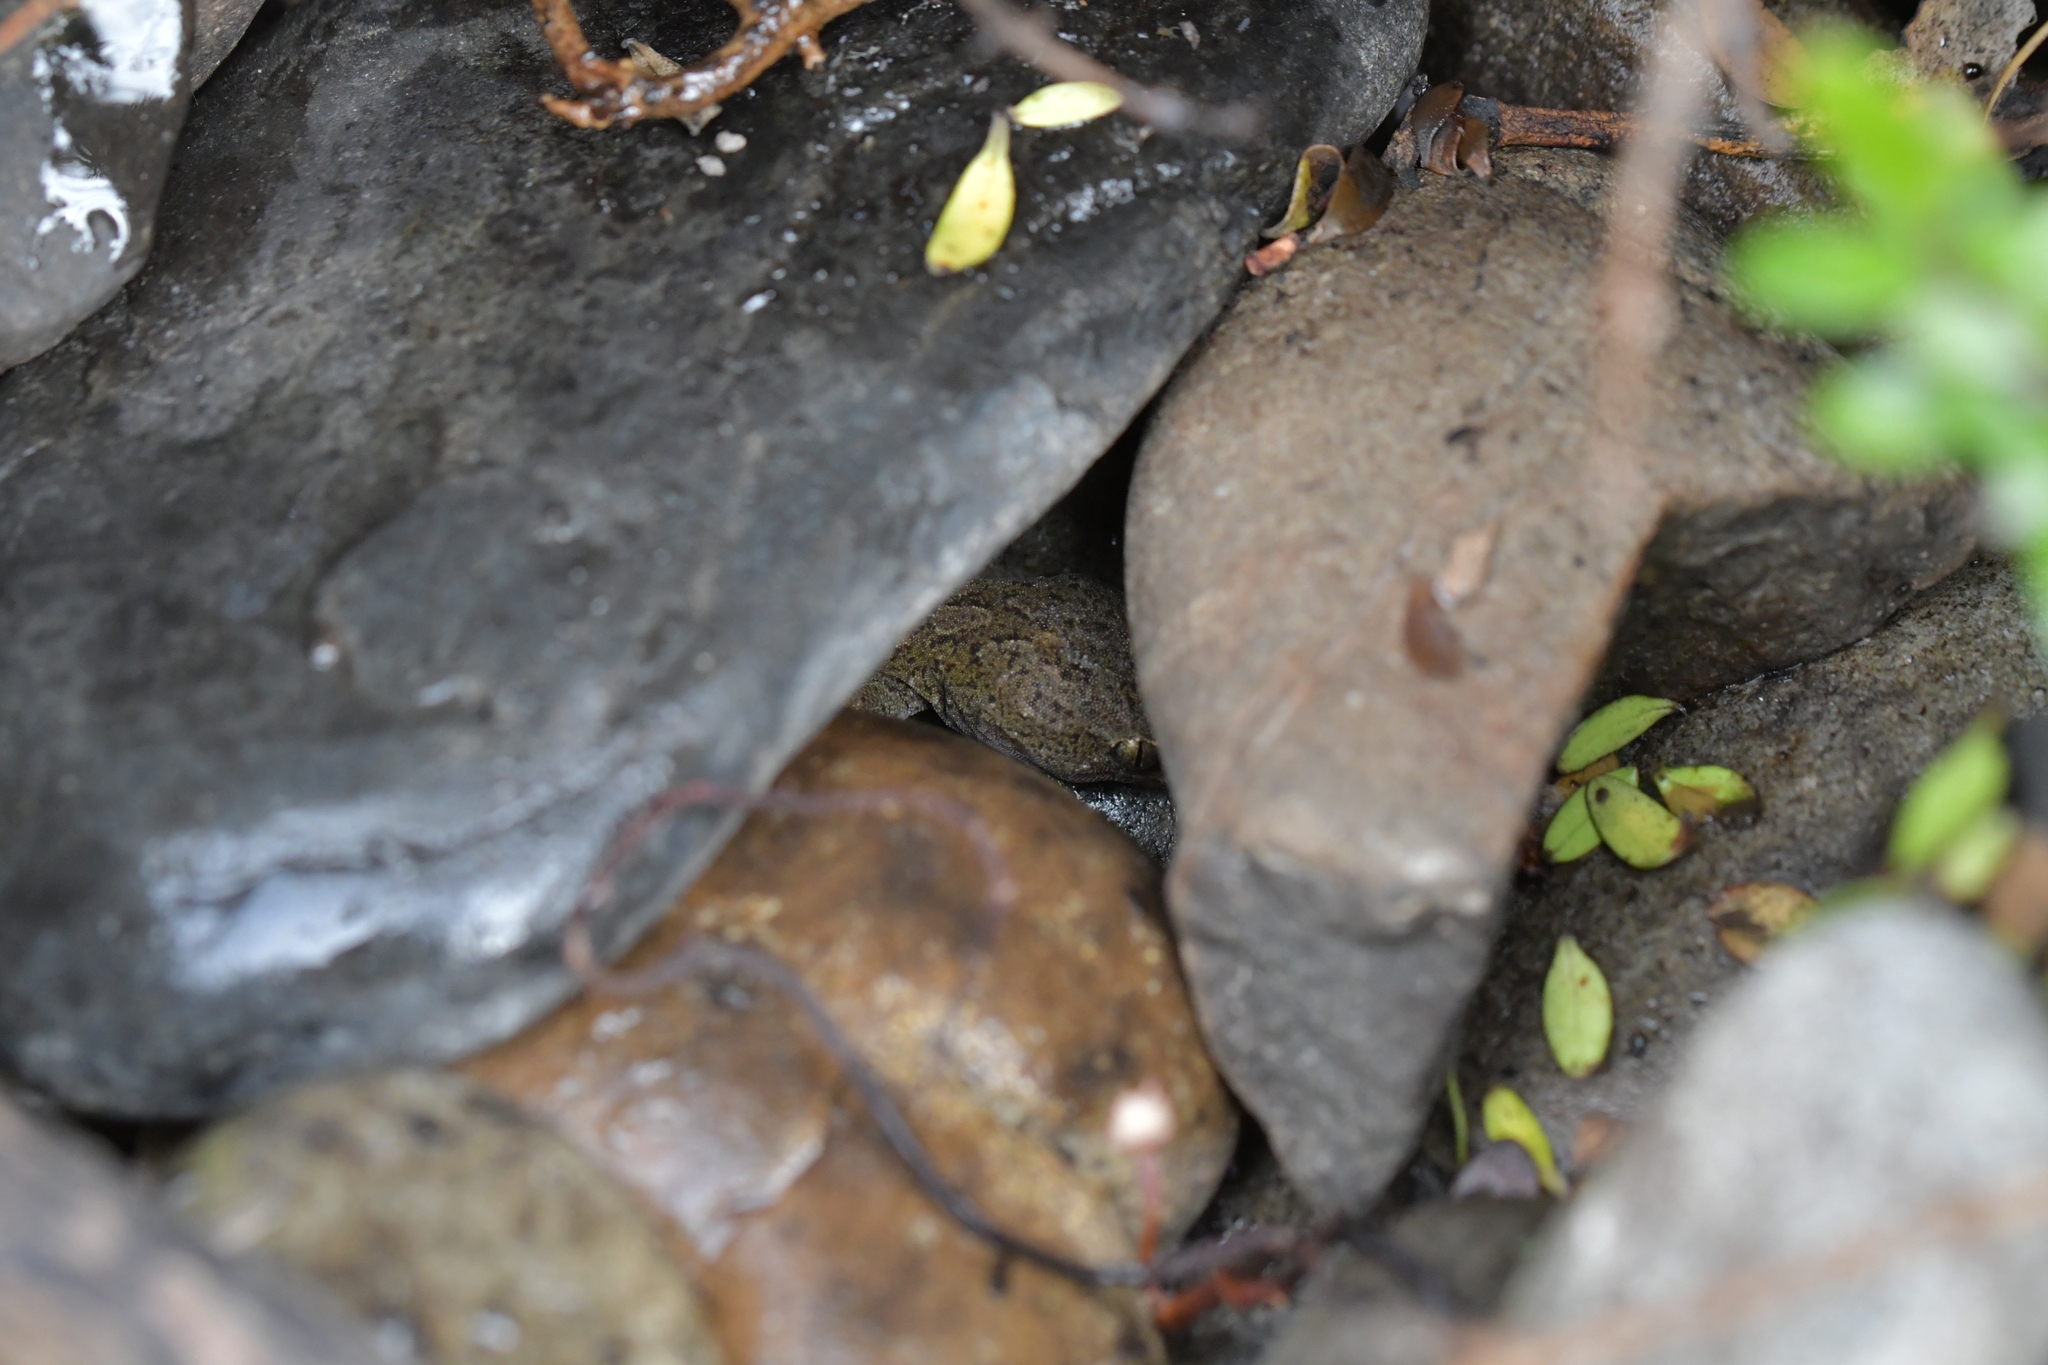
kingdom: Animalia
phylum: Chordata
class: Squamata
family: Diplodactylidae
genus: Woodworthia
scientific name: Woodworthia maculata
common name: Raukawa gecko
